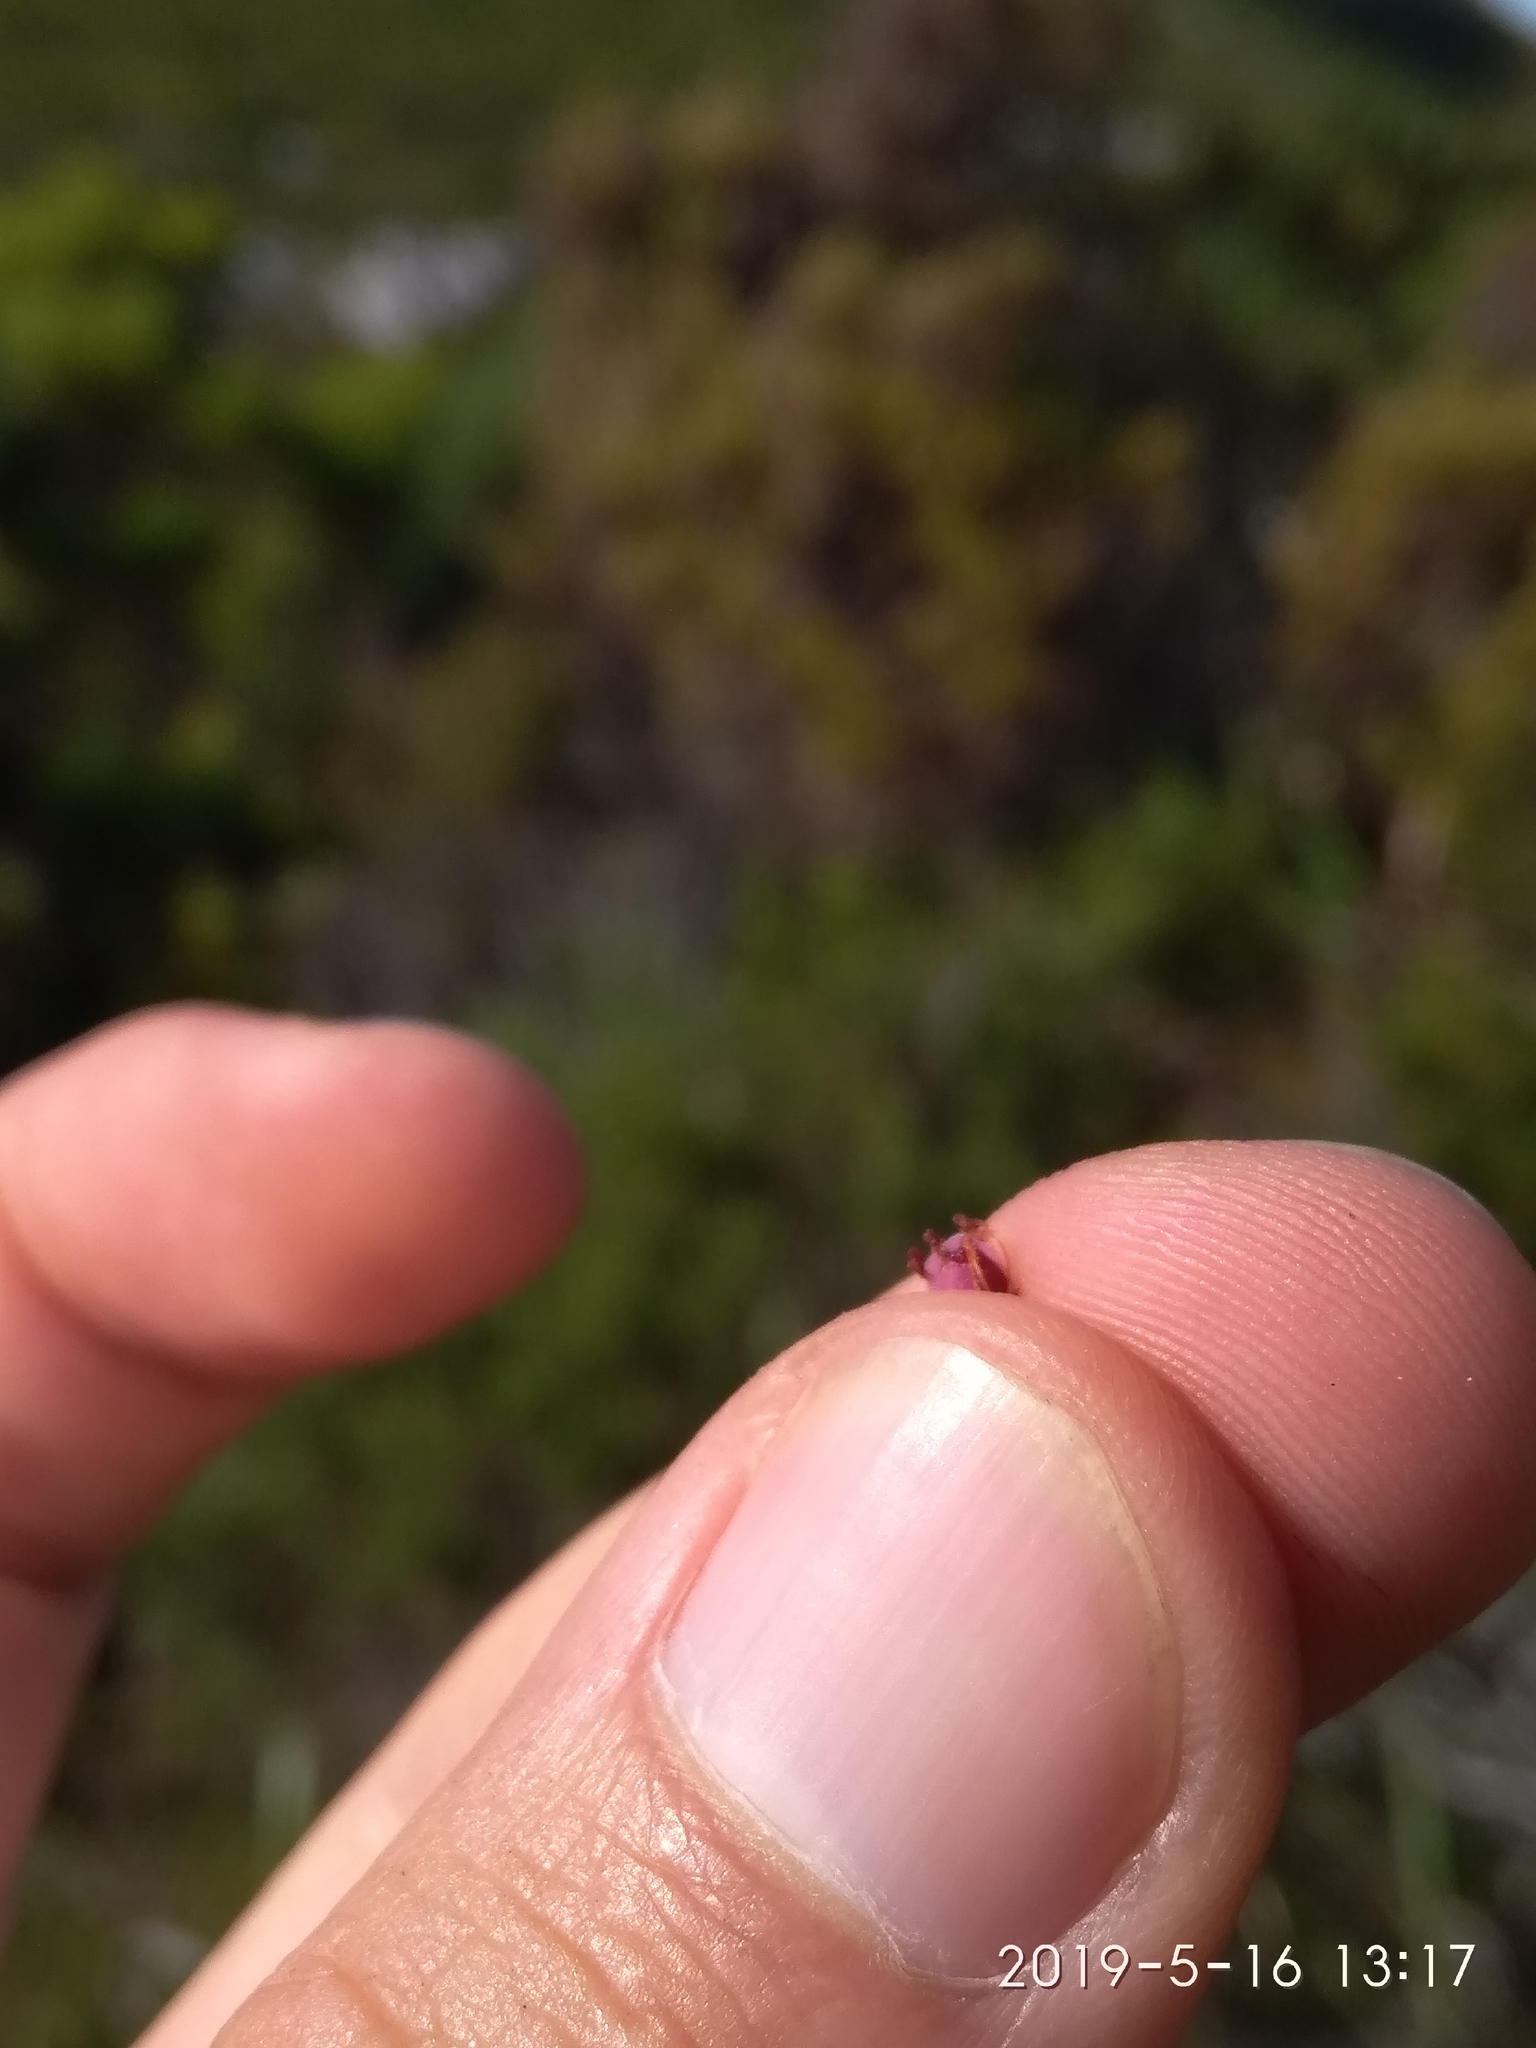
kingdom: Plantae
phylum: Tracheophyta
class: Magnoliopsida
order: Ericales
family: Ericaceae
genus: Erica
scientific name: Erica hirtiflora
